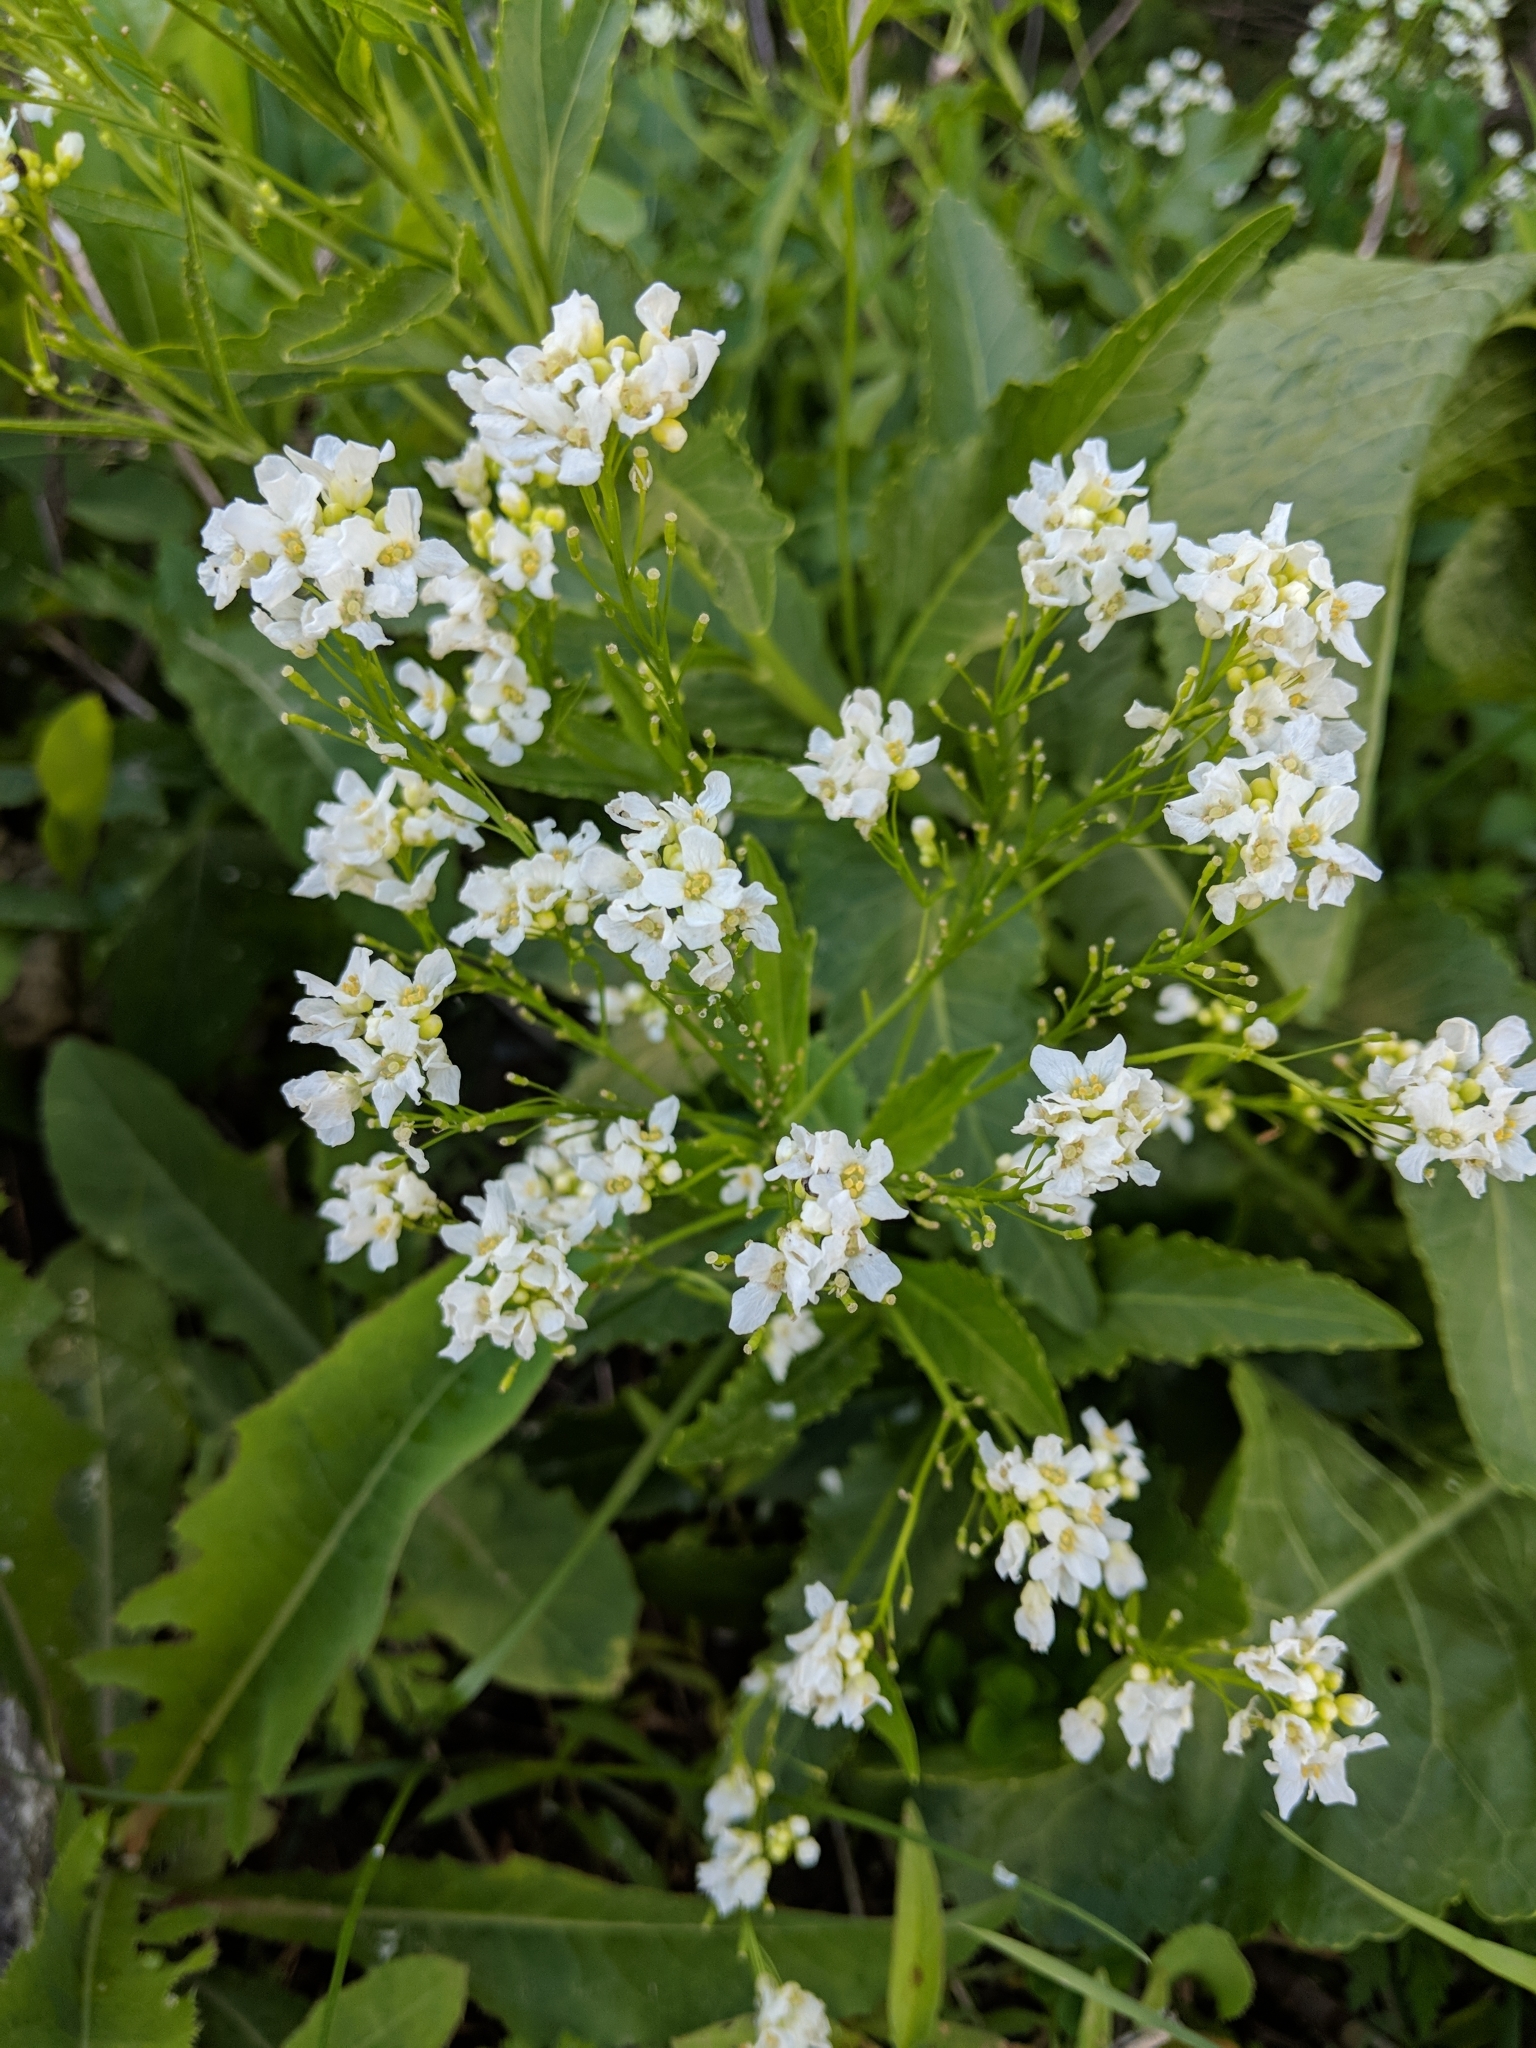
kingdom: Plantae
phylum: Tracheophyta
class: Magnoliopsida
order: Brassicales
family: Brassicaceae
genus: Armoracia
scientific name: Armoracia rusticana
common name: Horseradish
